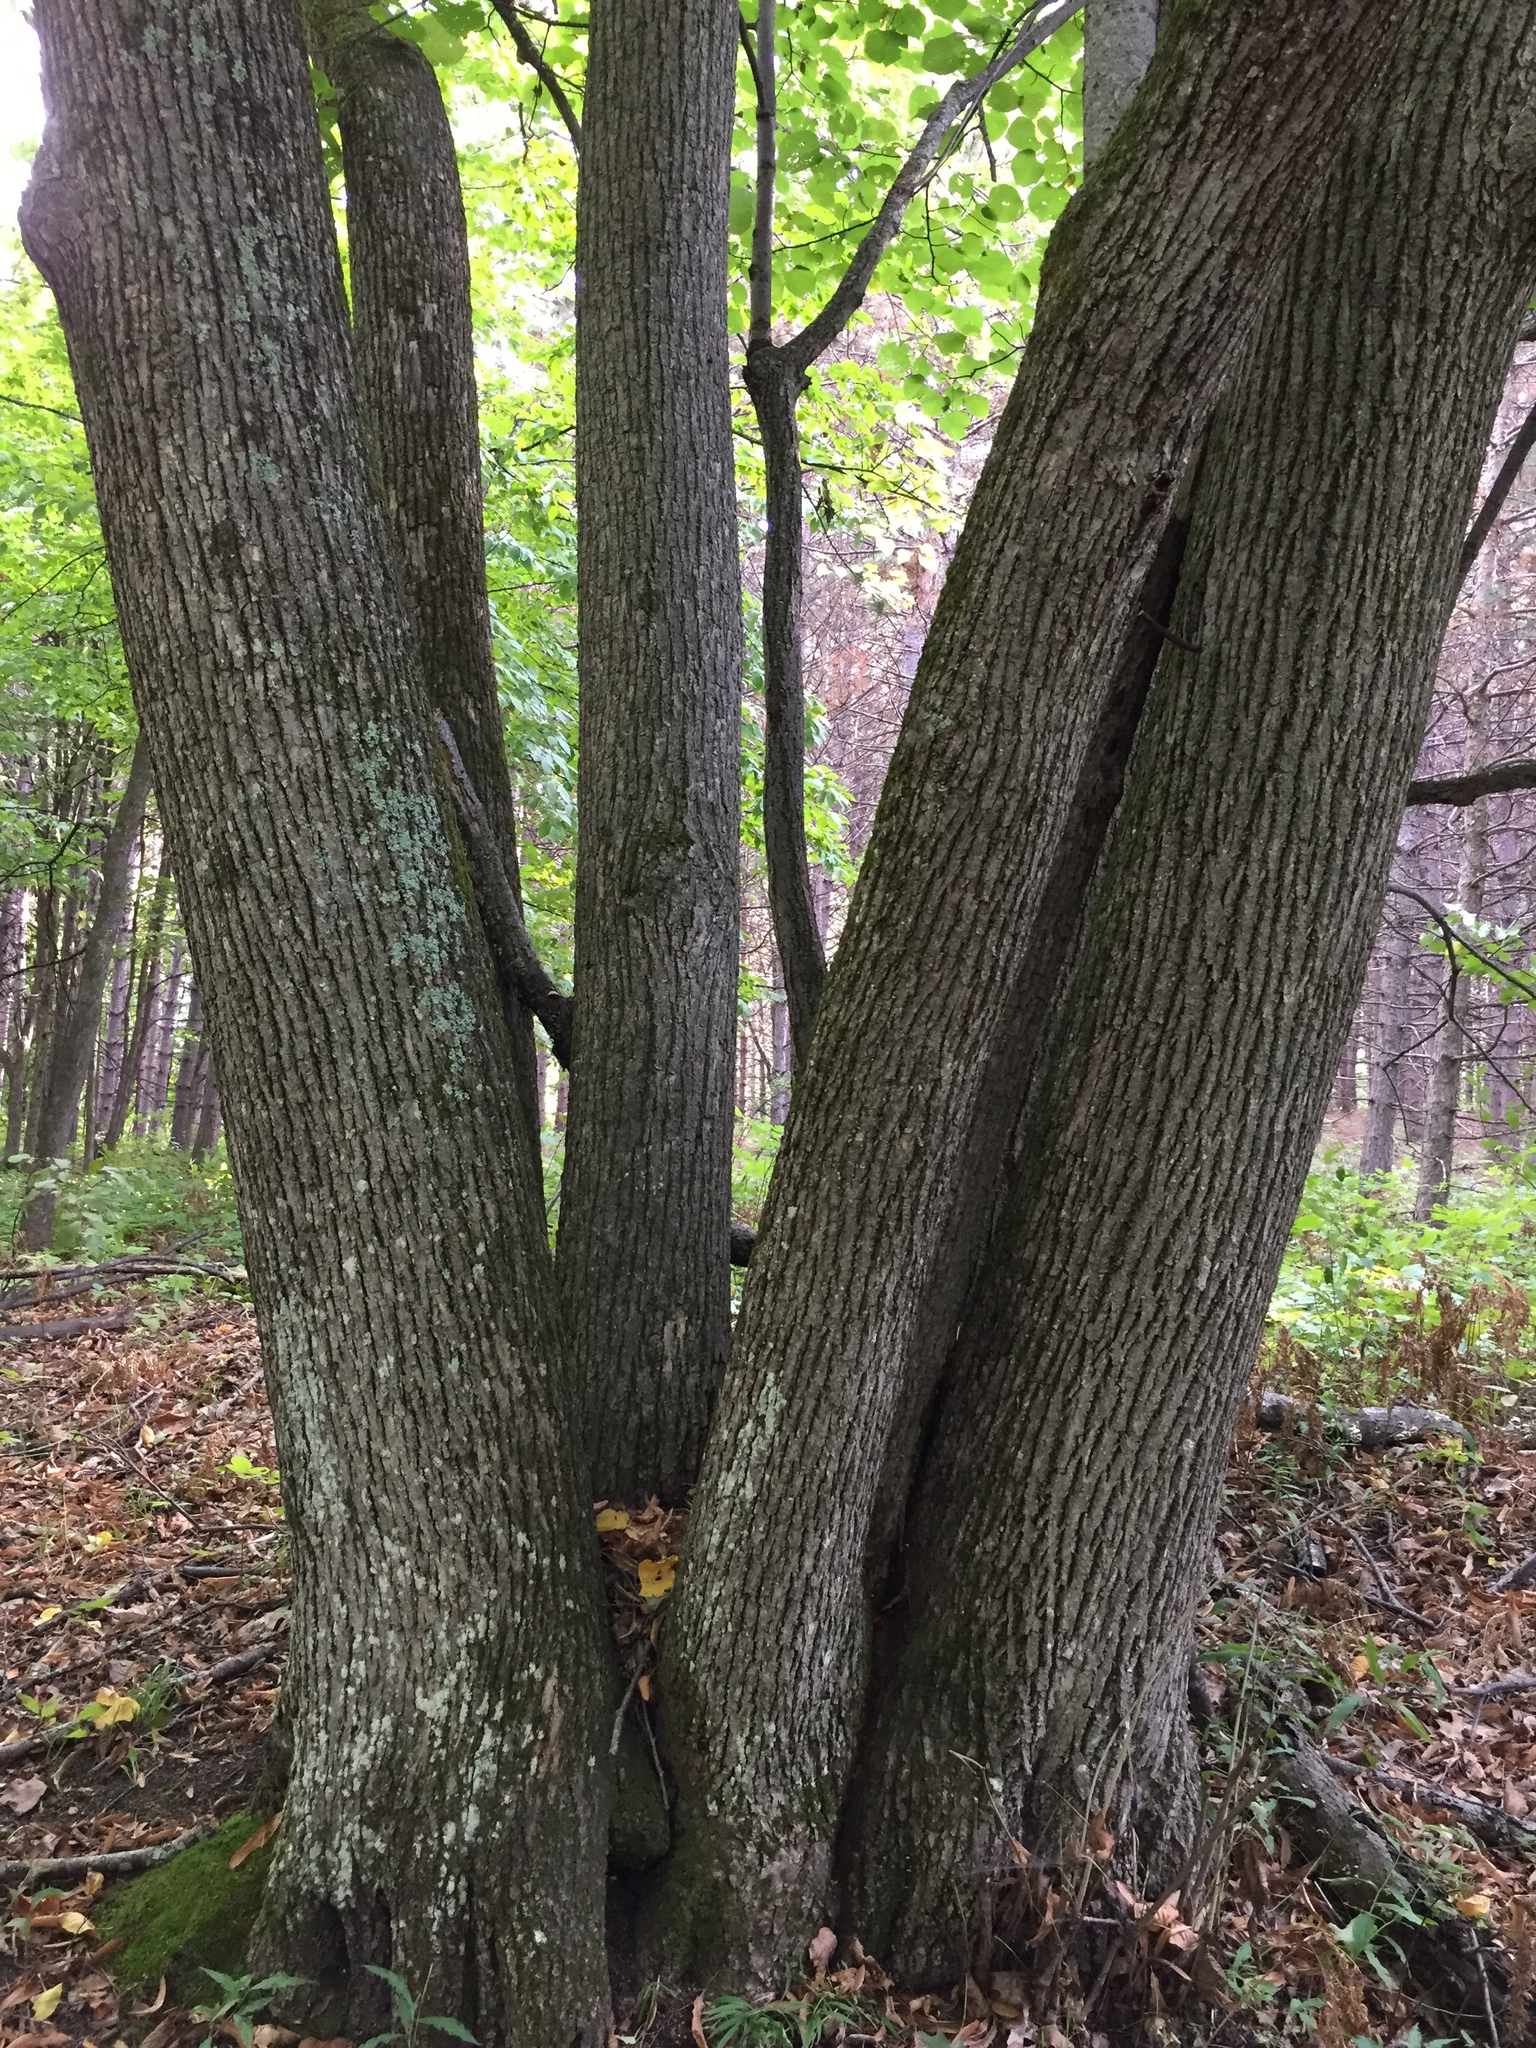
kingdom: Plantae
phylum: Tracheophyta
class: Magnoliopsida
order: Malvales
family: Malvaceae
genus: Tilia
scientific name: Tilia americana
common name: Basswood
